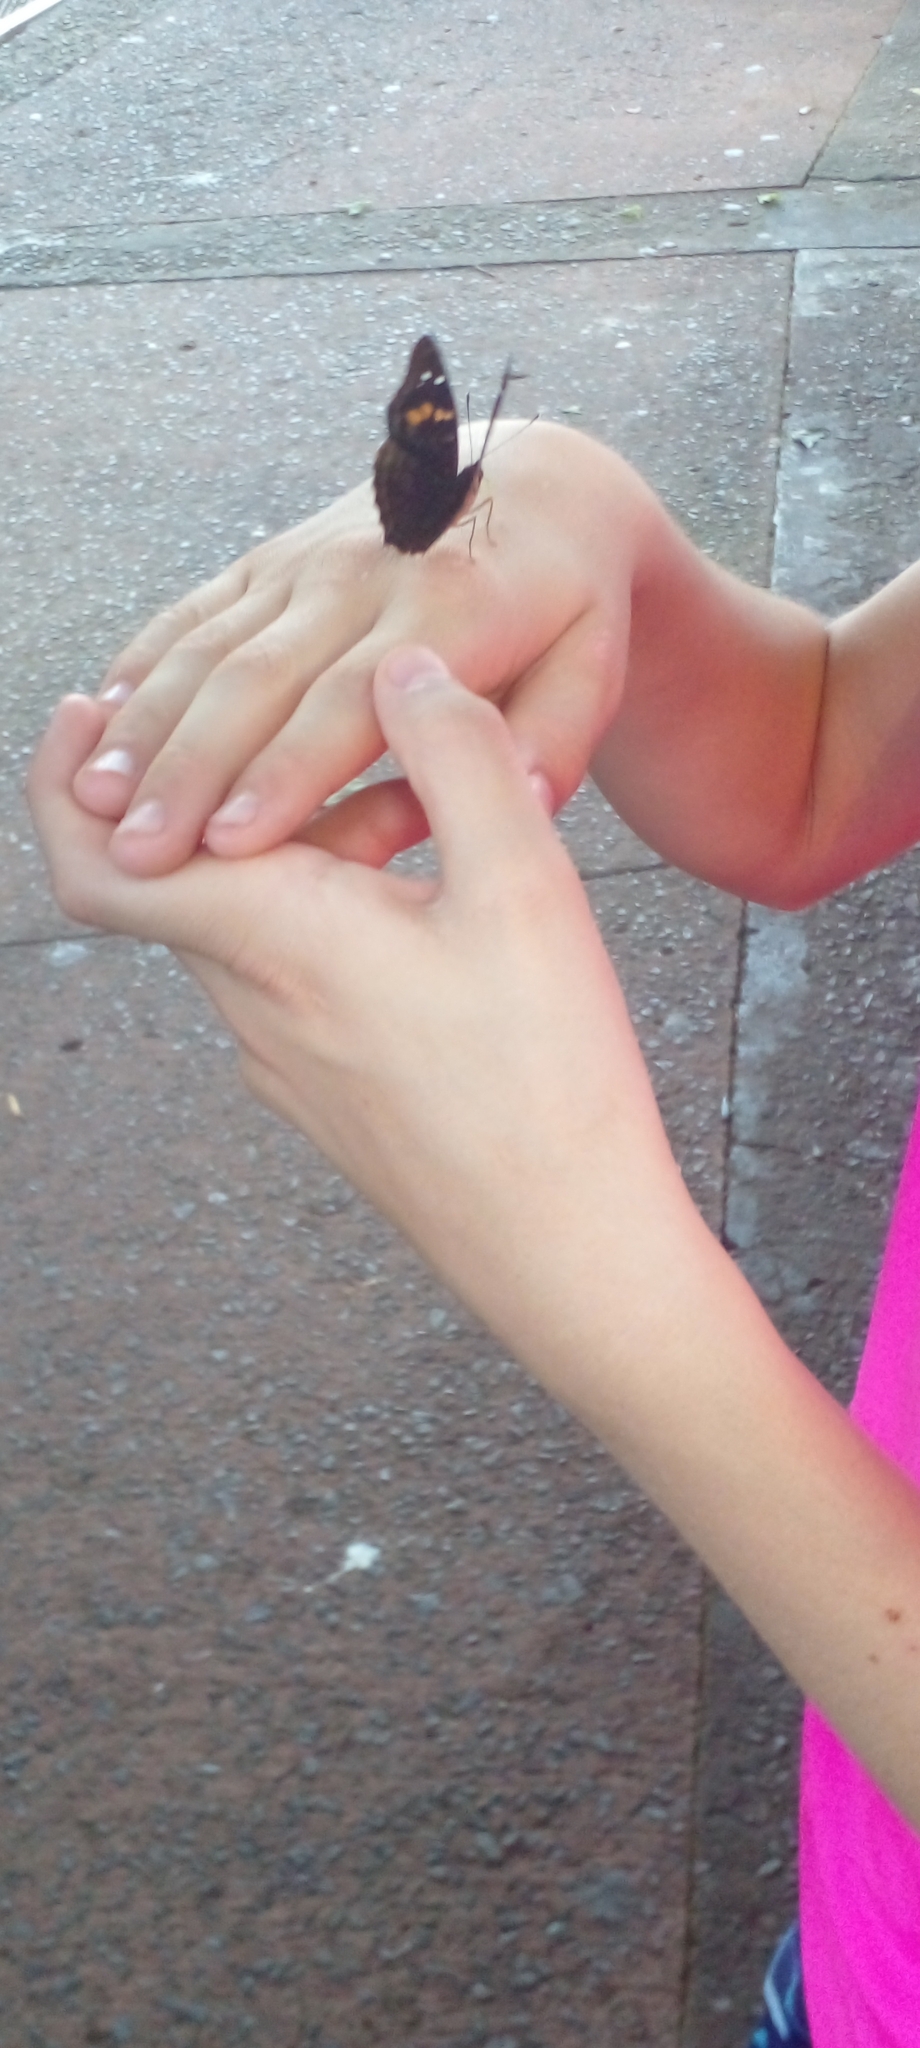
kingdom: Animalia
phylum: Arthropoda
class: Insecta
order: Lepidoptera
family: Nymphalidae
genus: Doxocopa
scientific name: Doxocopa agathina
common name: Agathina emperor
